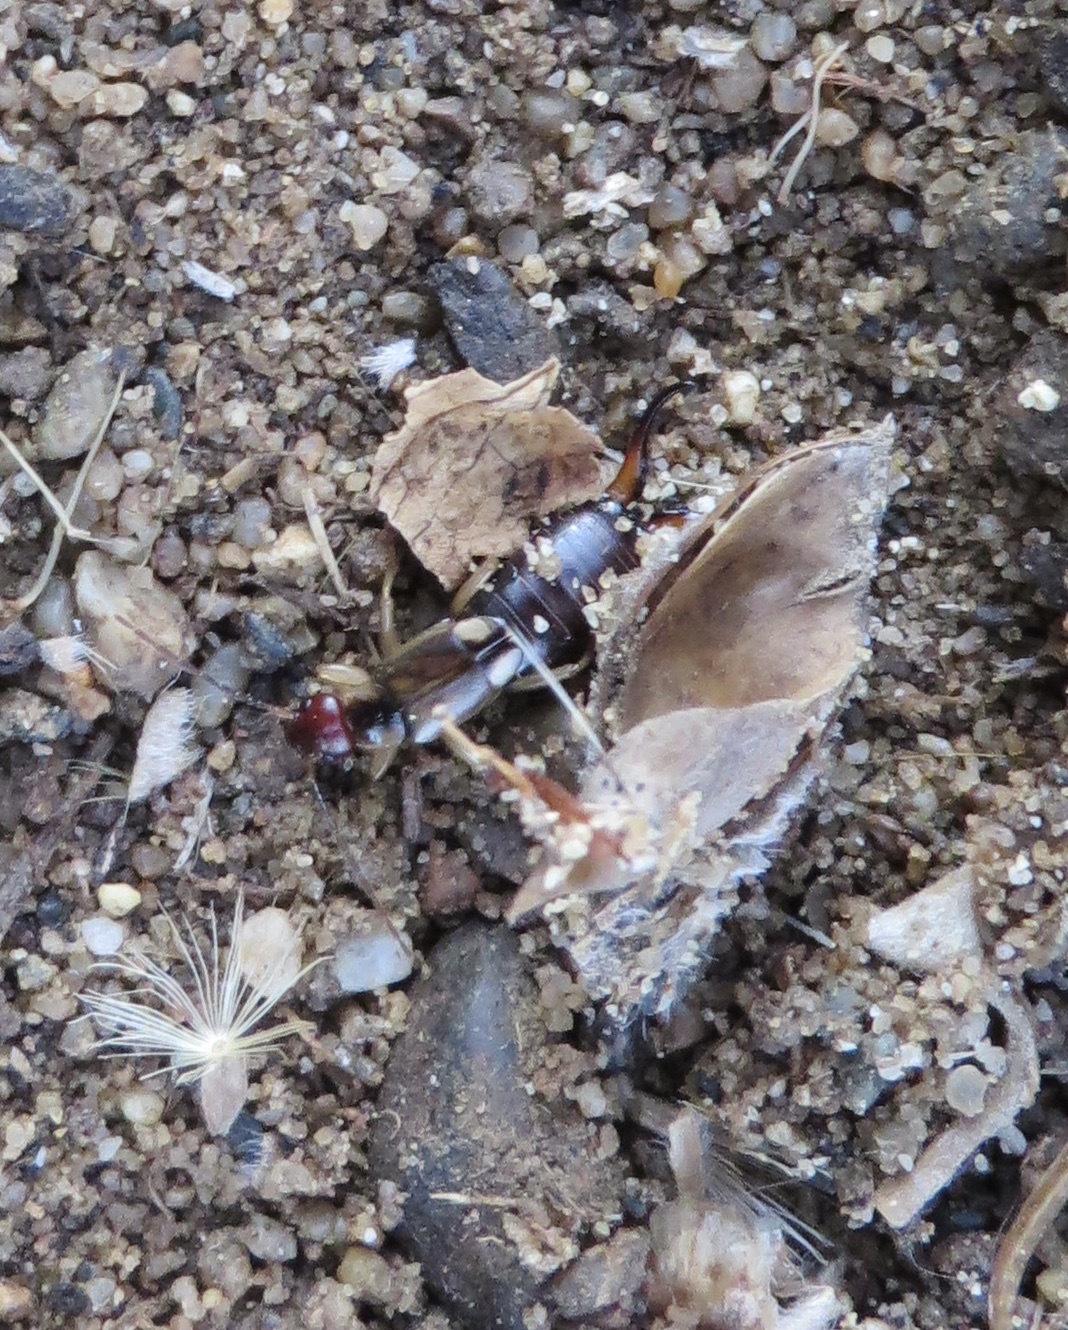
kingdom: Animalia
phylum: Arthropoda
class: Insecta
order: Dermaptera
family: Forficulidae
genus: Forficula
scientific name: Forficula
